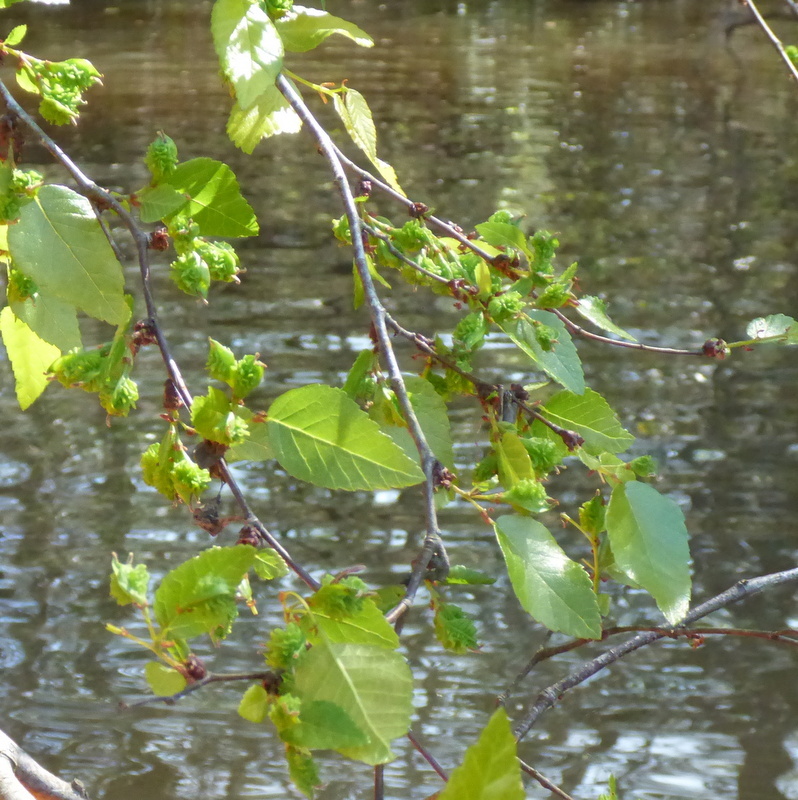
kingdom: Plantae
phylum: Tracheophyta
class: Magnoliopsida
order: Rosales
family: Ulmaceae
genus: Planera
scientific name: Planera aquatica
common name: Water-elm
